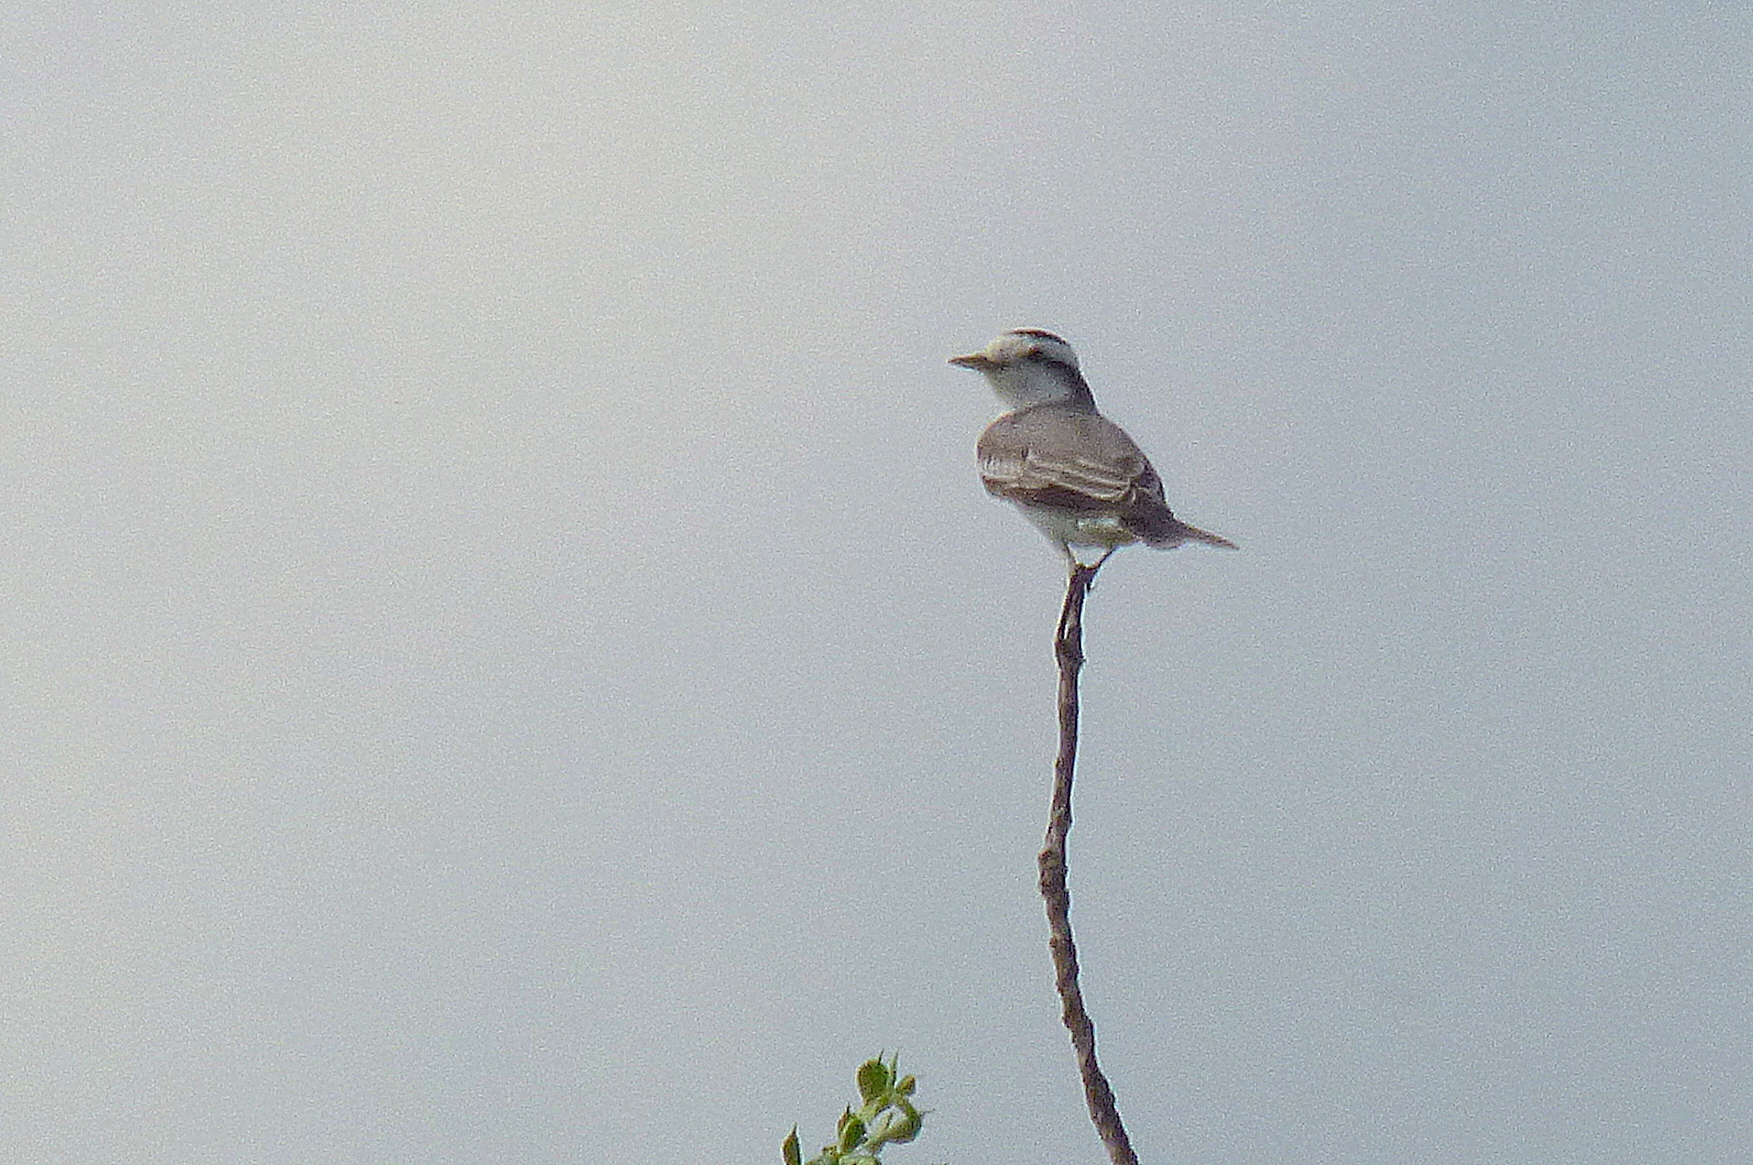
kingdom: Animalia
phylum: Chordata
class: Aves
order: Passeriformes
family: Tyrannidae
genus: Xolmis
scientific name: Xolmis coronatus
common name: Black-crowned monjita
